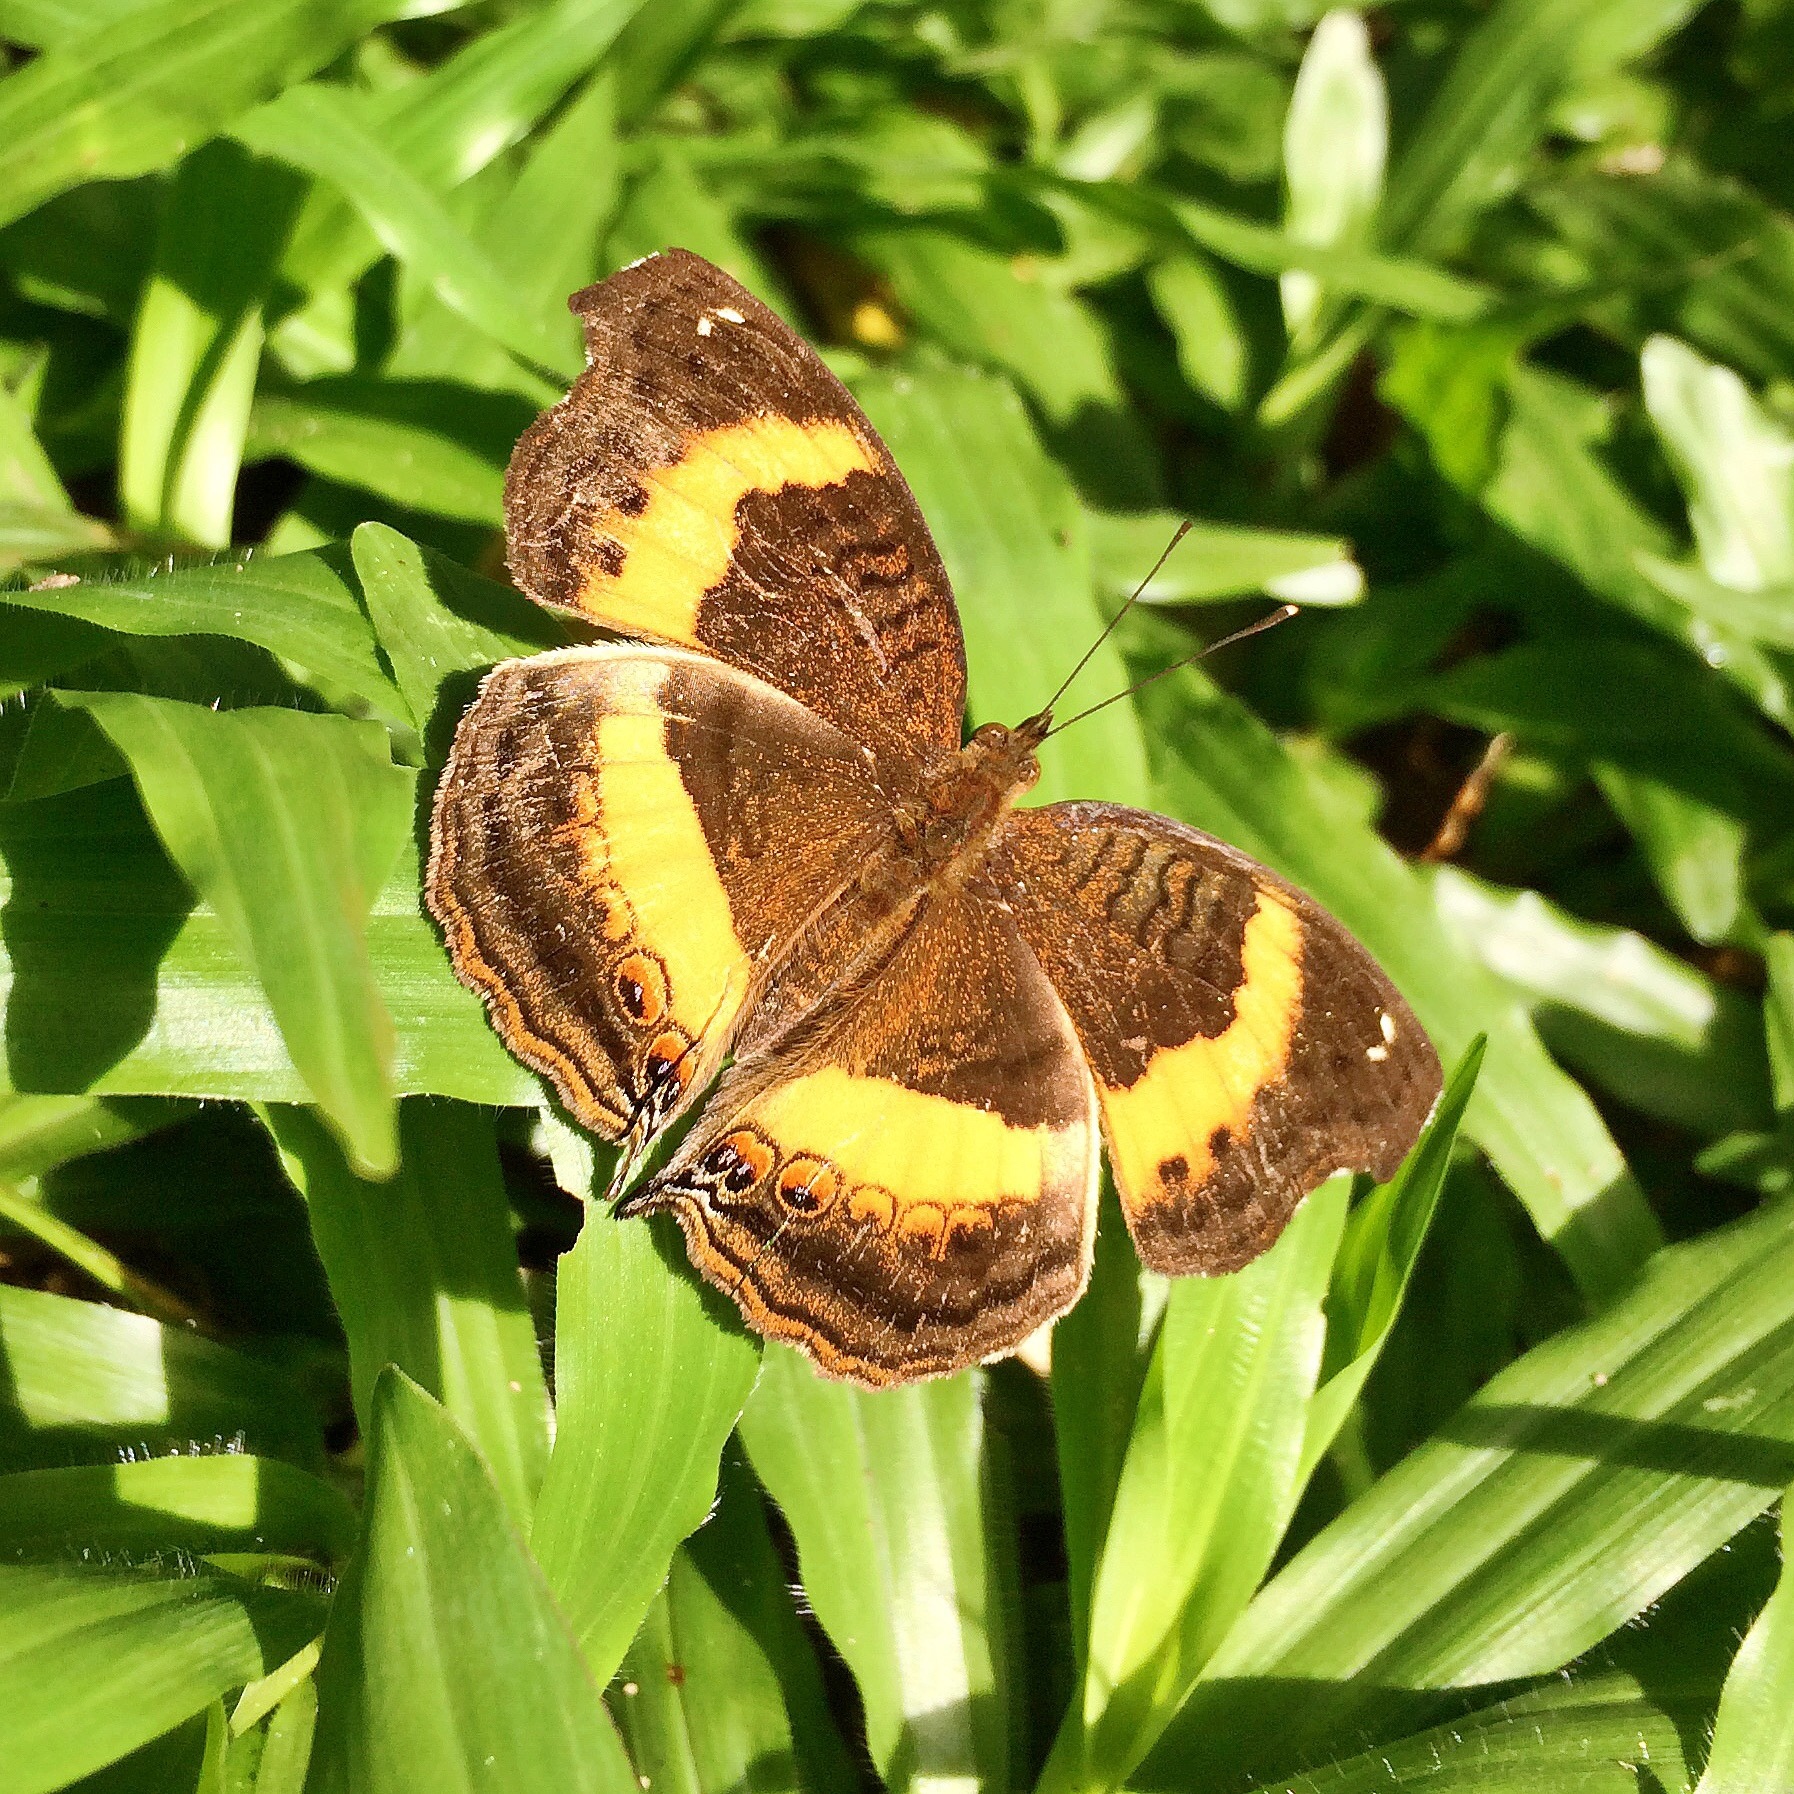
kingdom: Animalia
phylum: Arthropoda
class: Insecta
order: Lepidoptera
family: Nymphalidae
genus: Junonia
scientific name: Junonia terea
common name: Soldier pansy
